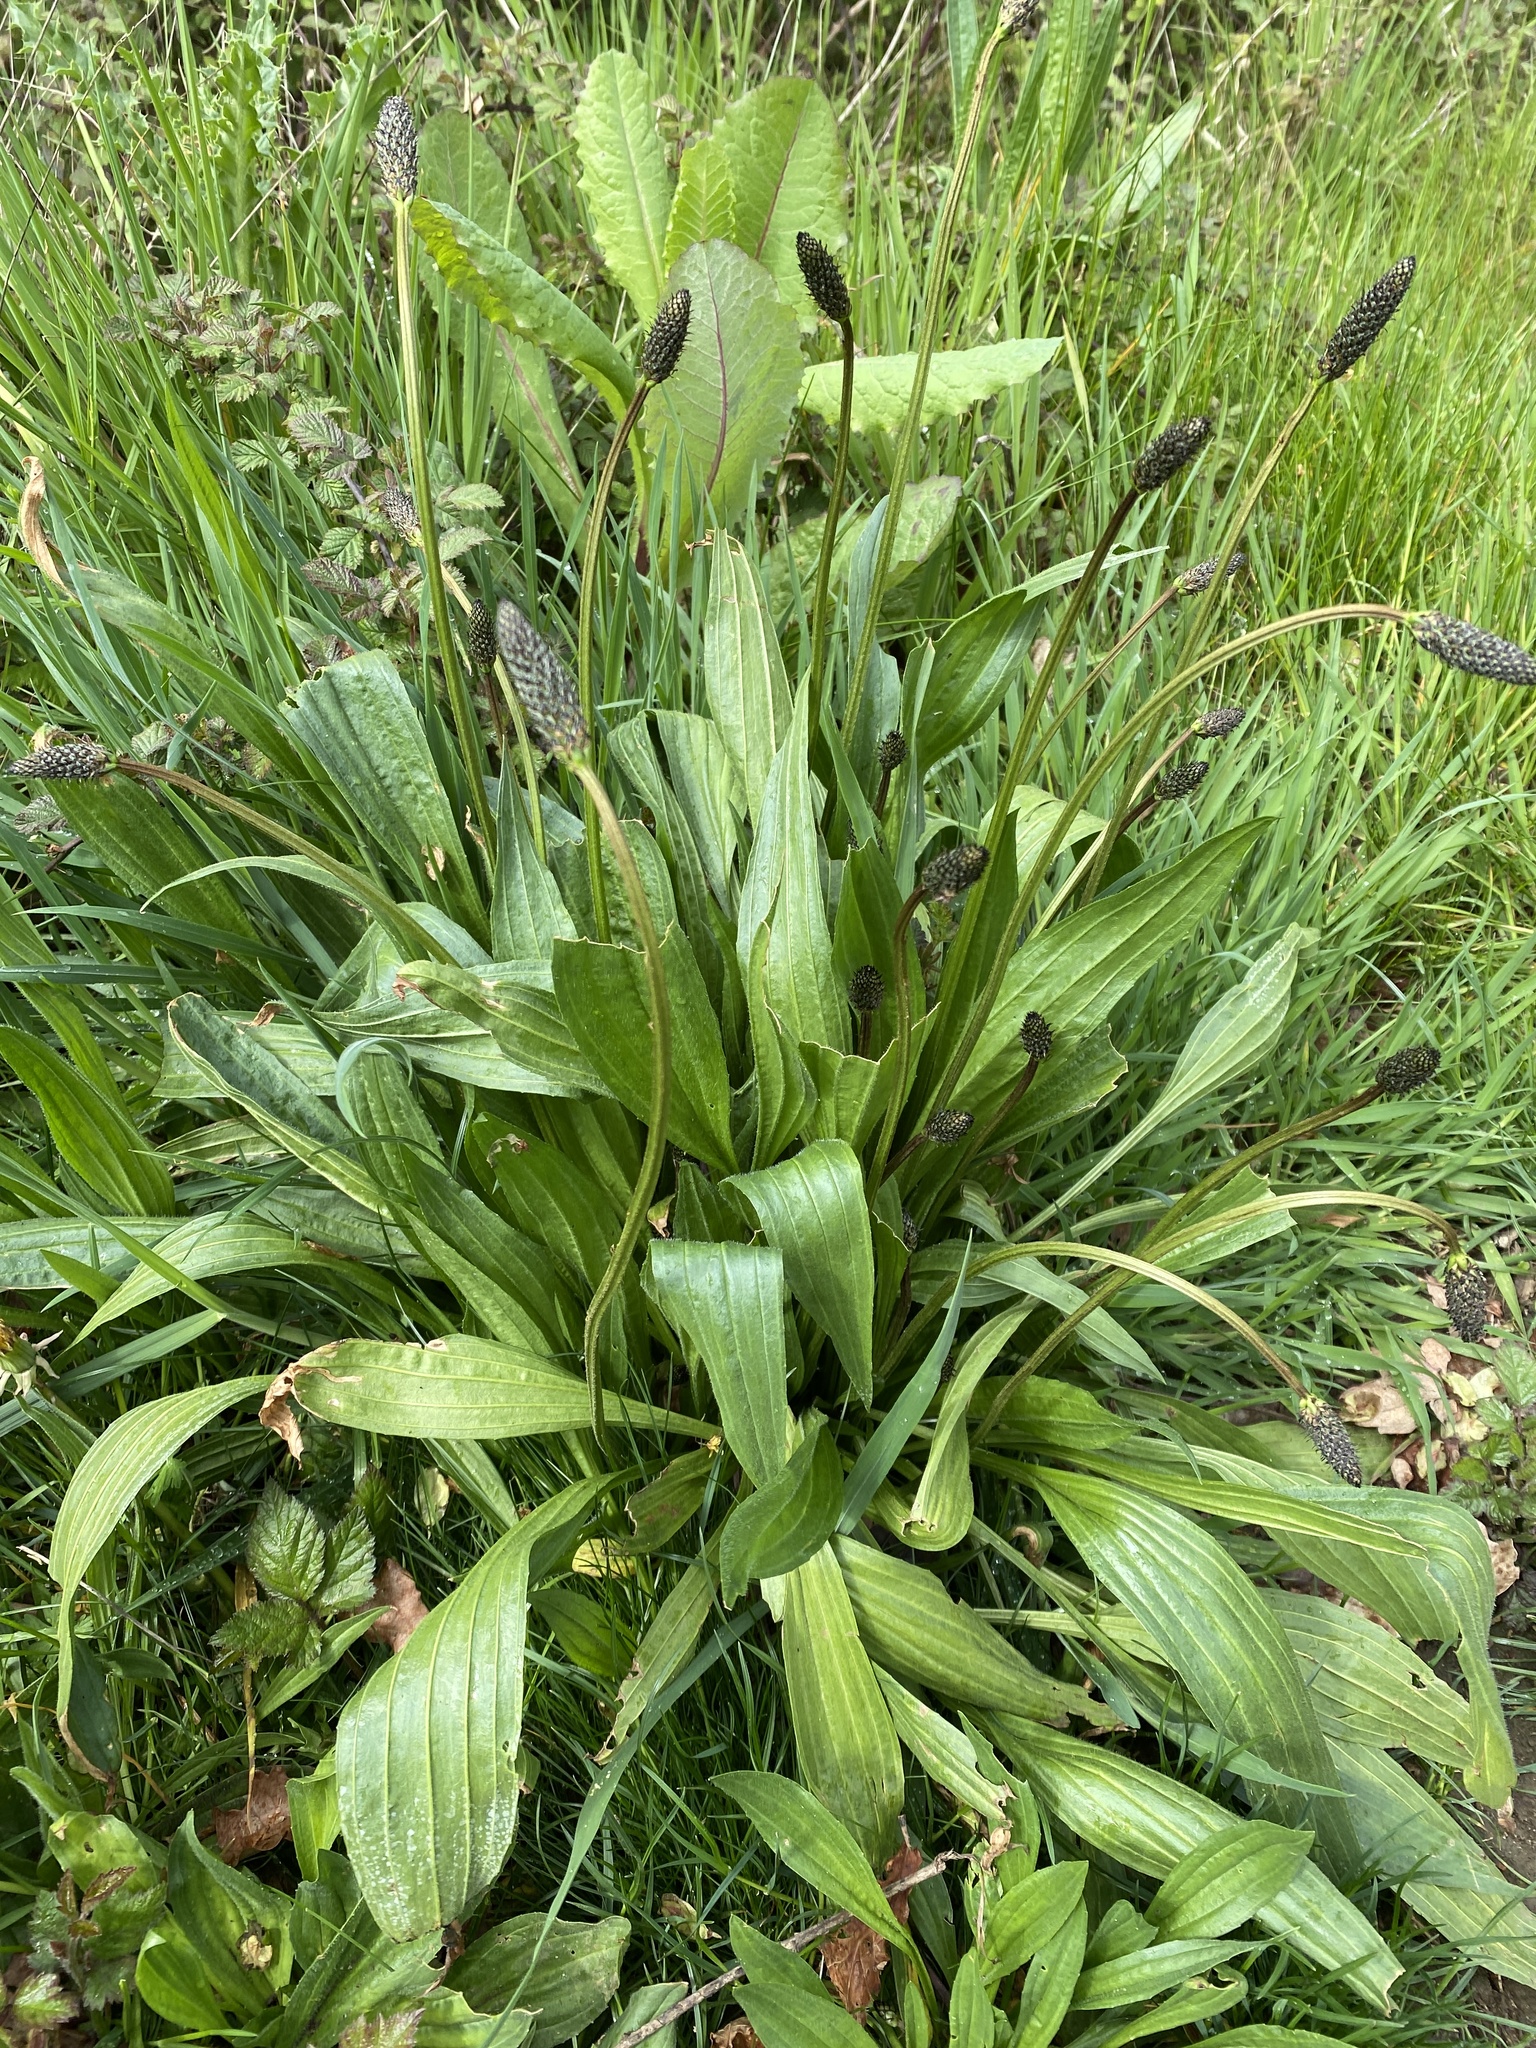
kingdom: Plantae
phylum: Tracheophyta
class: Magnoliopsida
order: Lamiales
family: Plantaginaceae
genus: Plantago
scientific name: Plantago lanceolata
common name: Ribwort plantain
